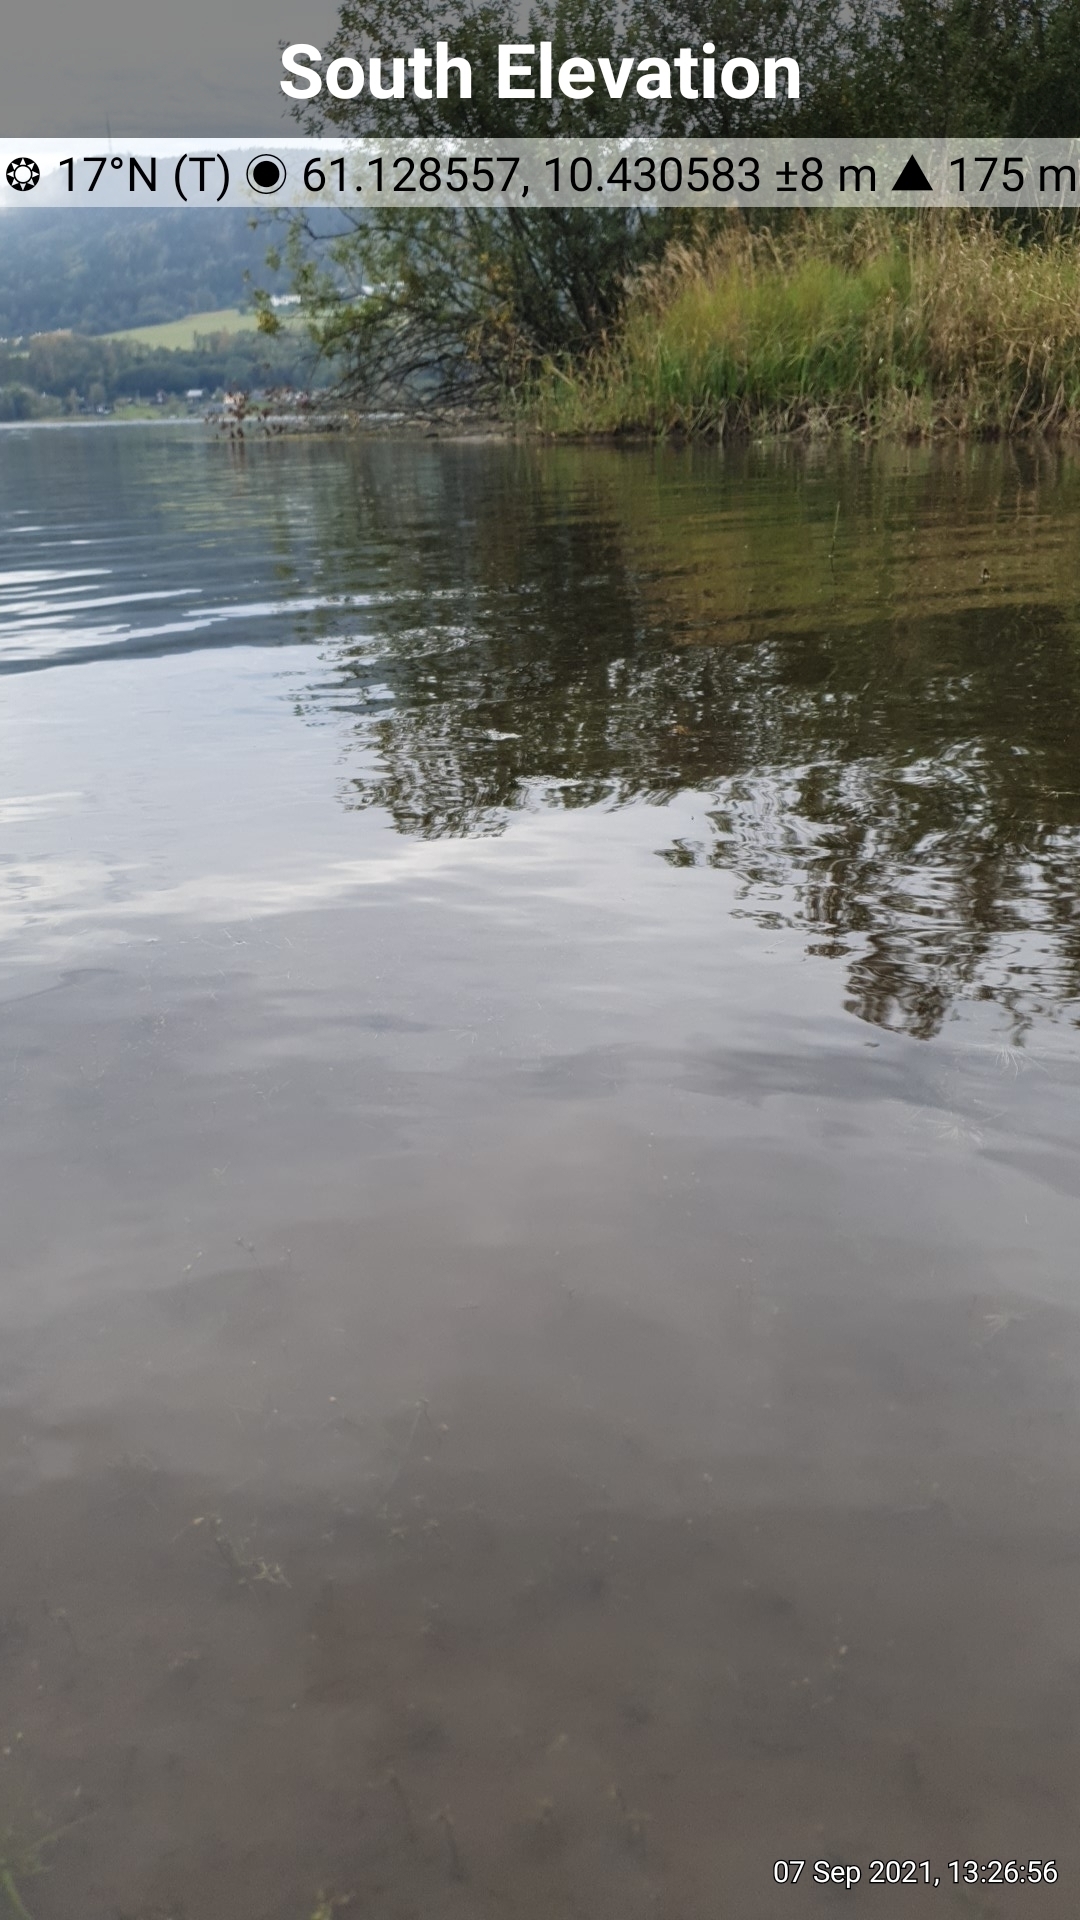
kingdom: Plantae
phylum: Tracheophyta
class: Magnoliopsida
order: Saxifragales
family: Crassulaceae
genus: Crassula
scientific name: Crassula aquatica
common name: Pigmyweed
